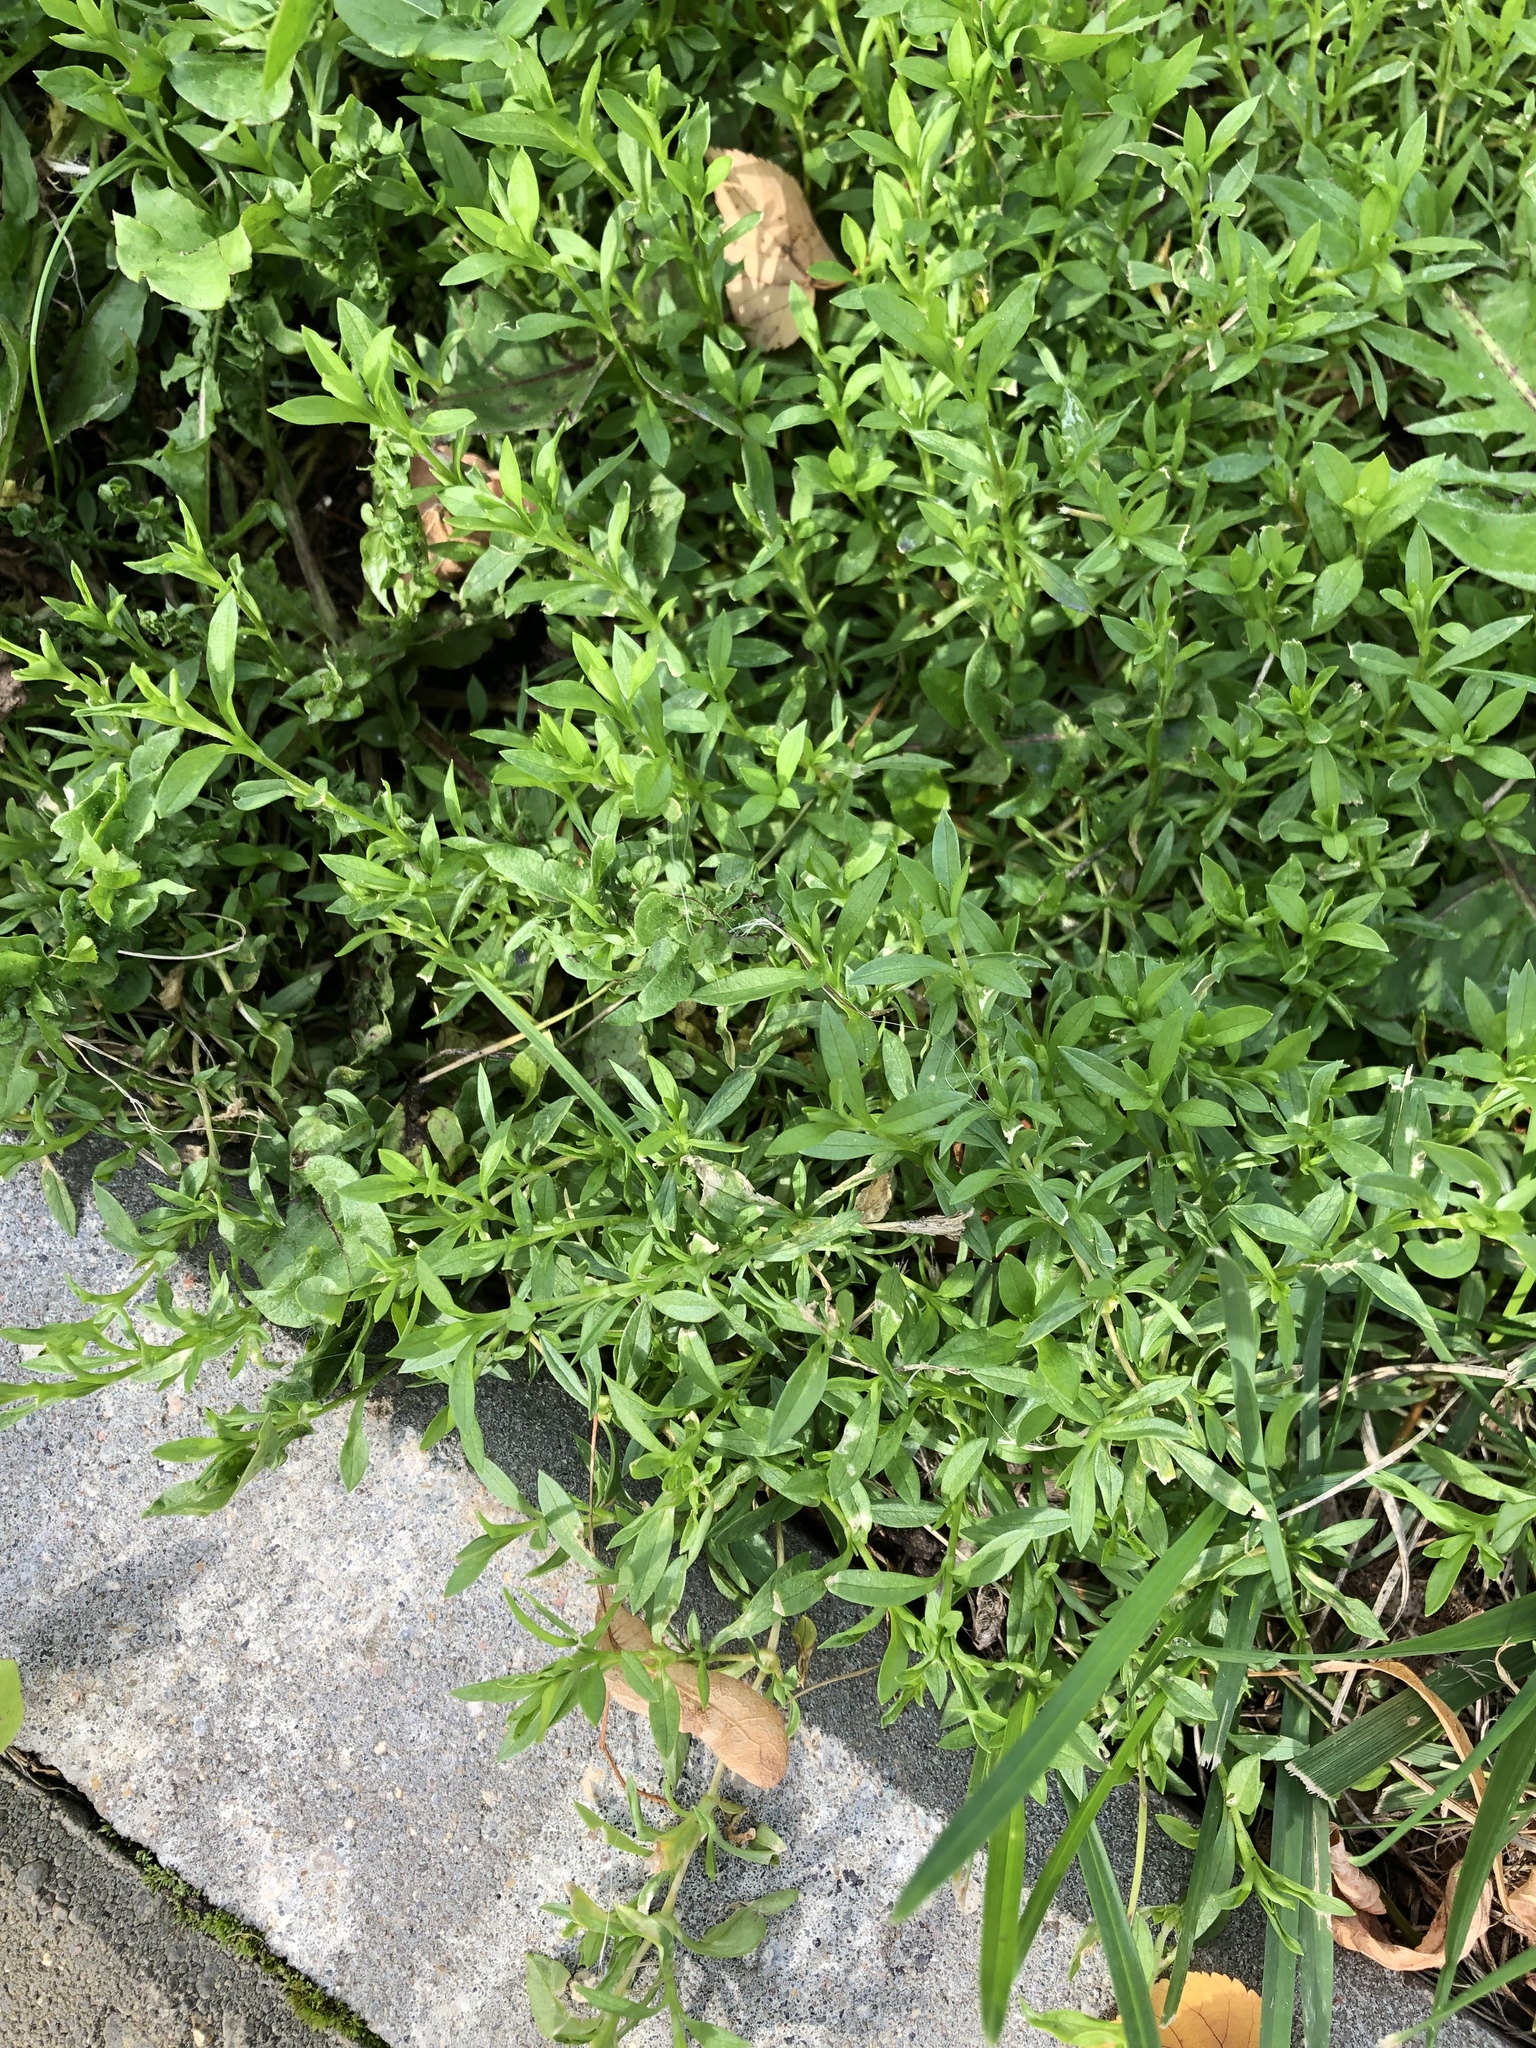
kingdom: Plantae
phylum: Tracheophyta
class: Magnoliopsida
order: Caryophyllales
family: Polygonaceae
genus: Polygonum
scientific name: Polygonum
